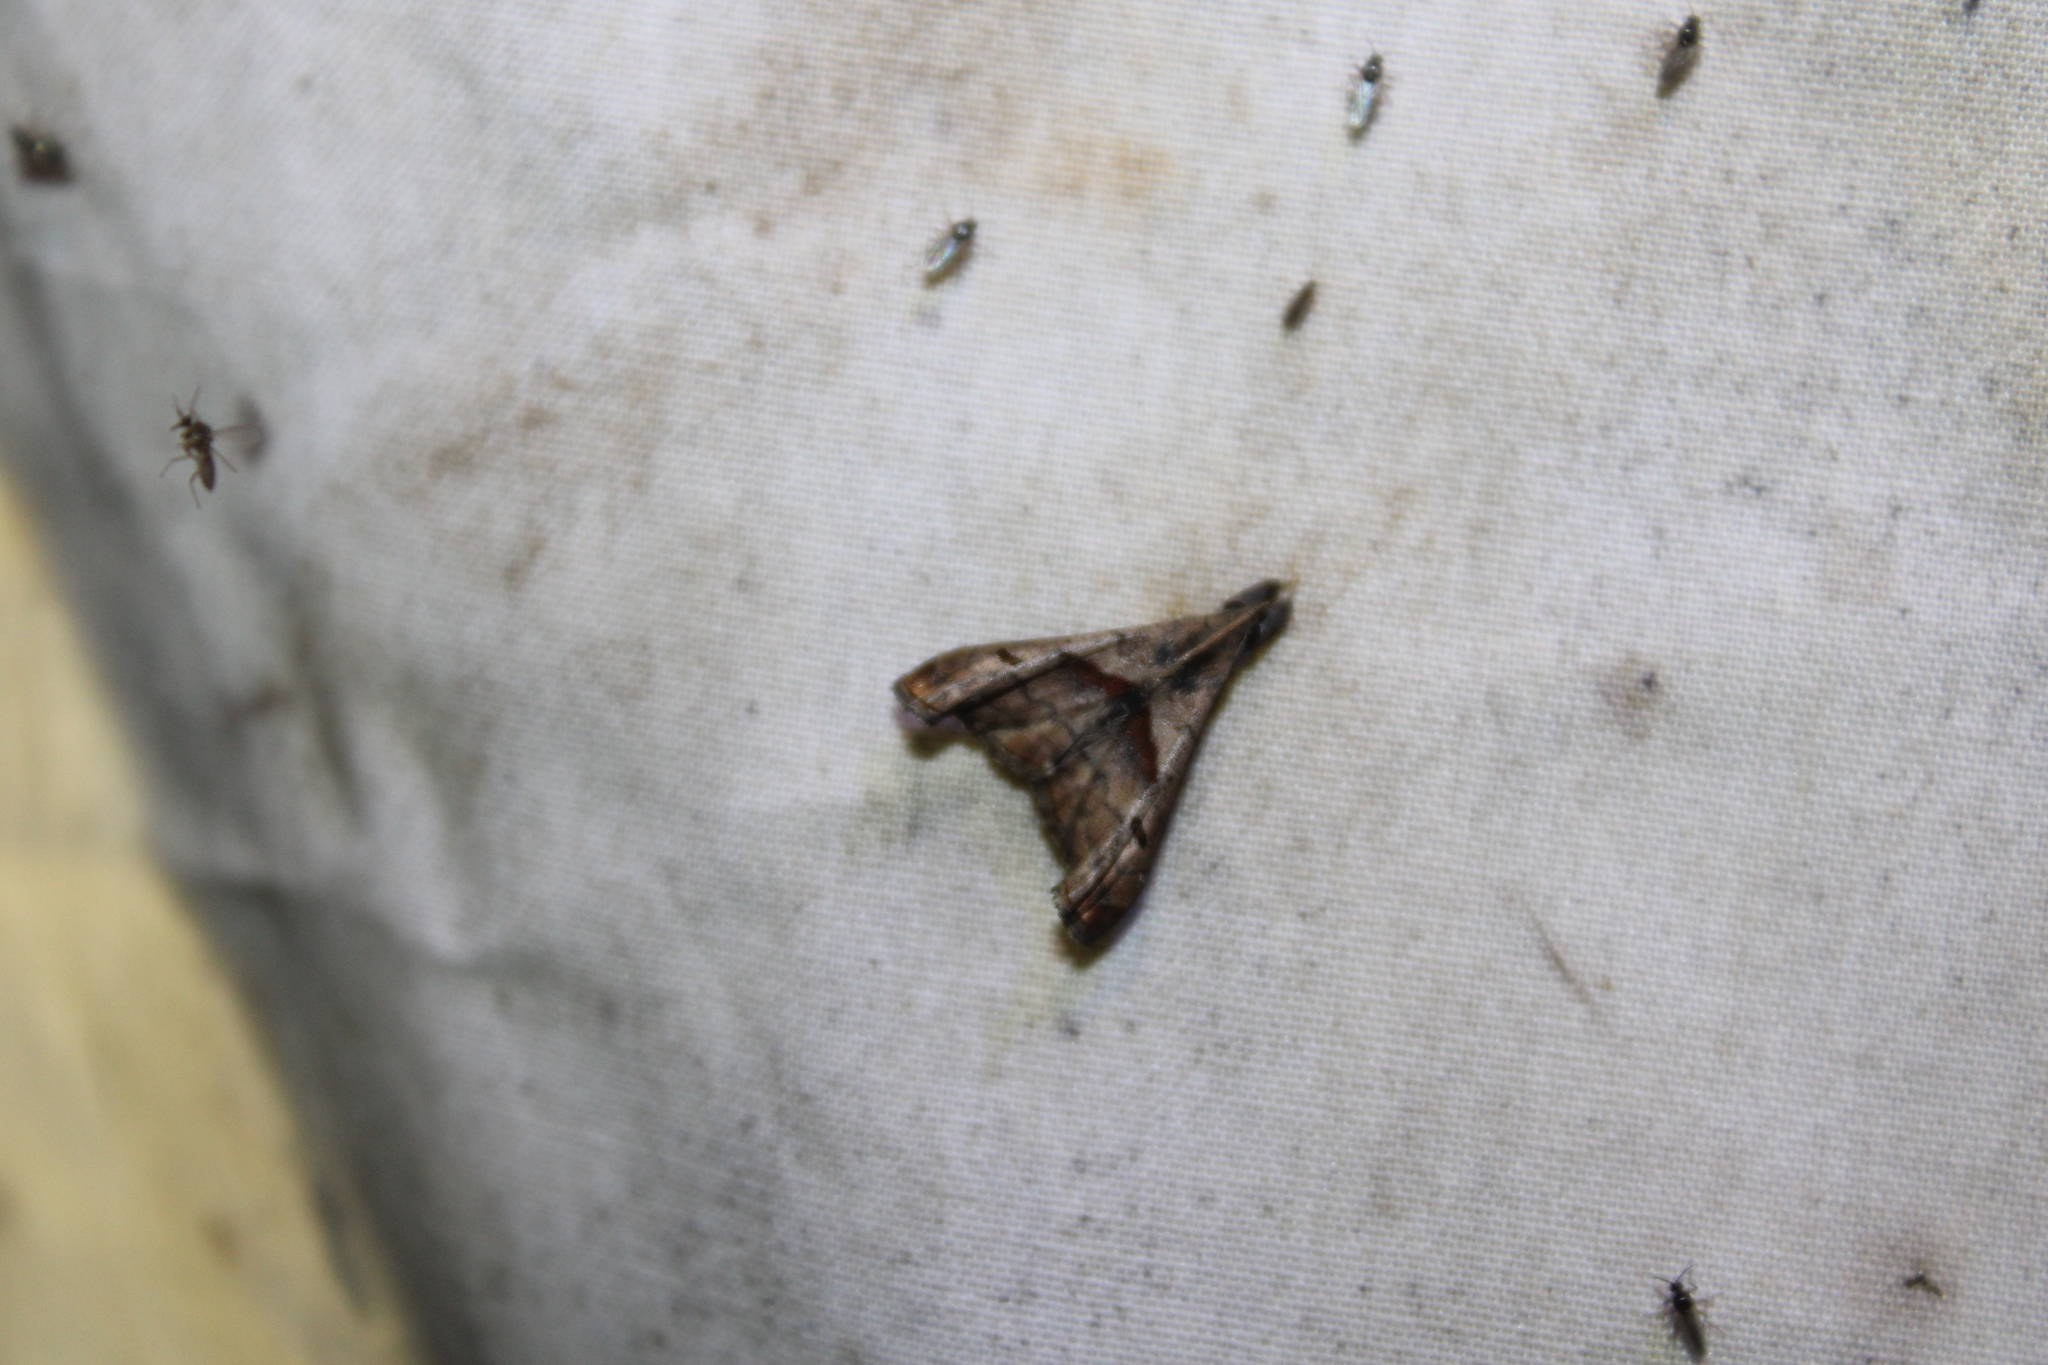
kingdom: Animalia
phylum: Arthropoda
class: Insecta
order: Lepidoptera
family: Erebidae
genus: Palthis
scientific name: Palthis angulalis
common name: Dark-spotted palthis moth
